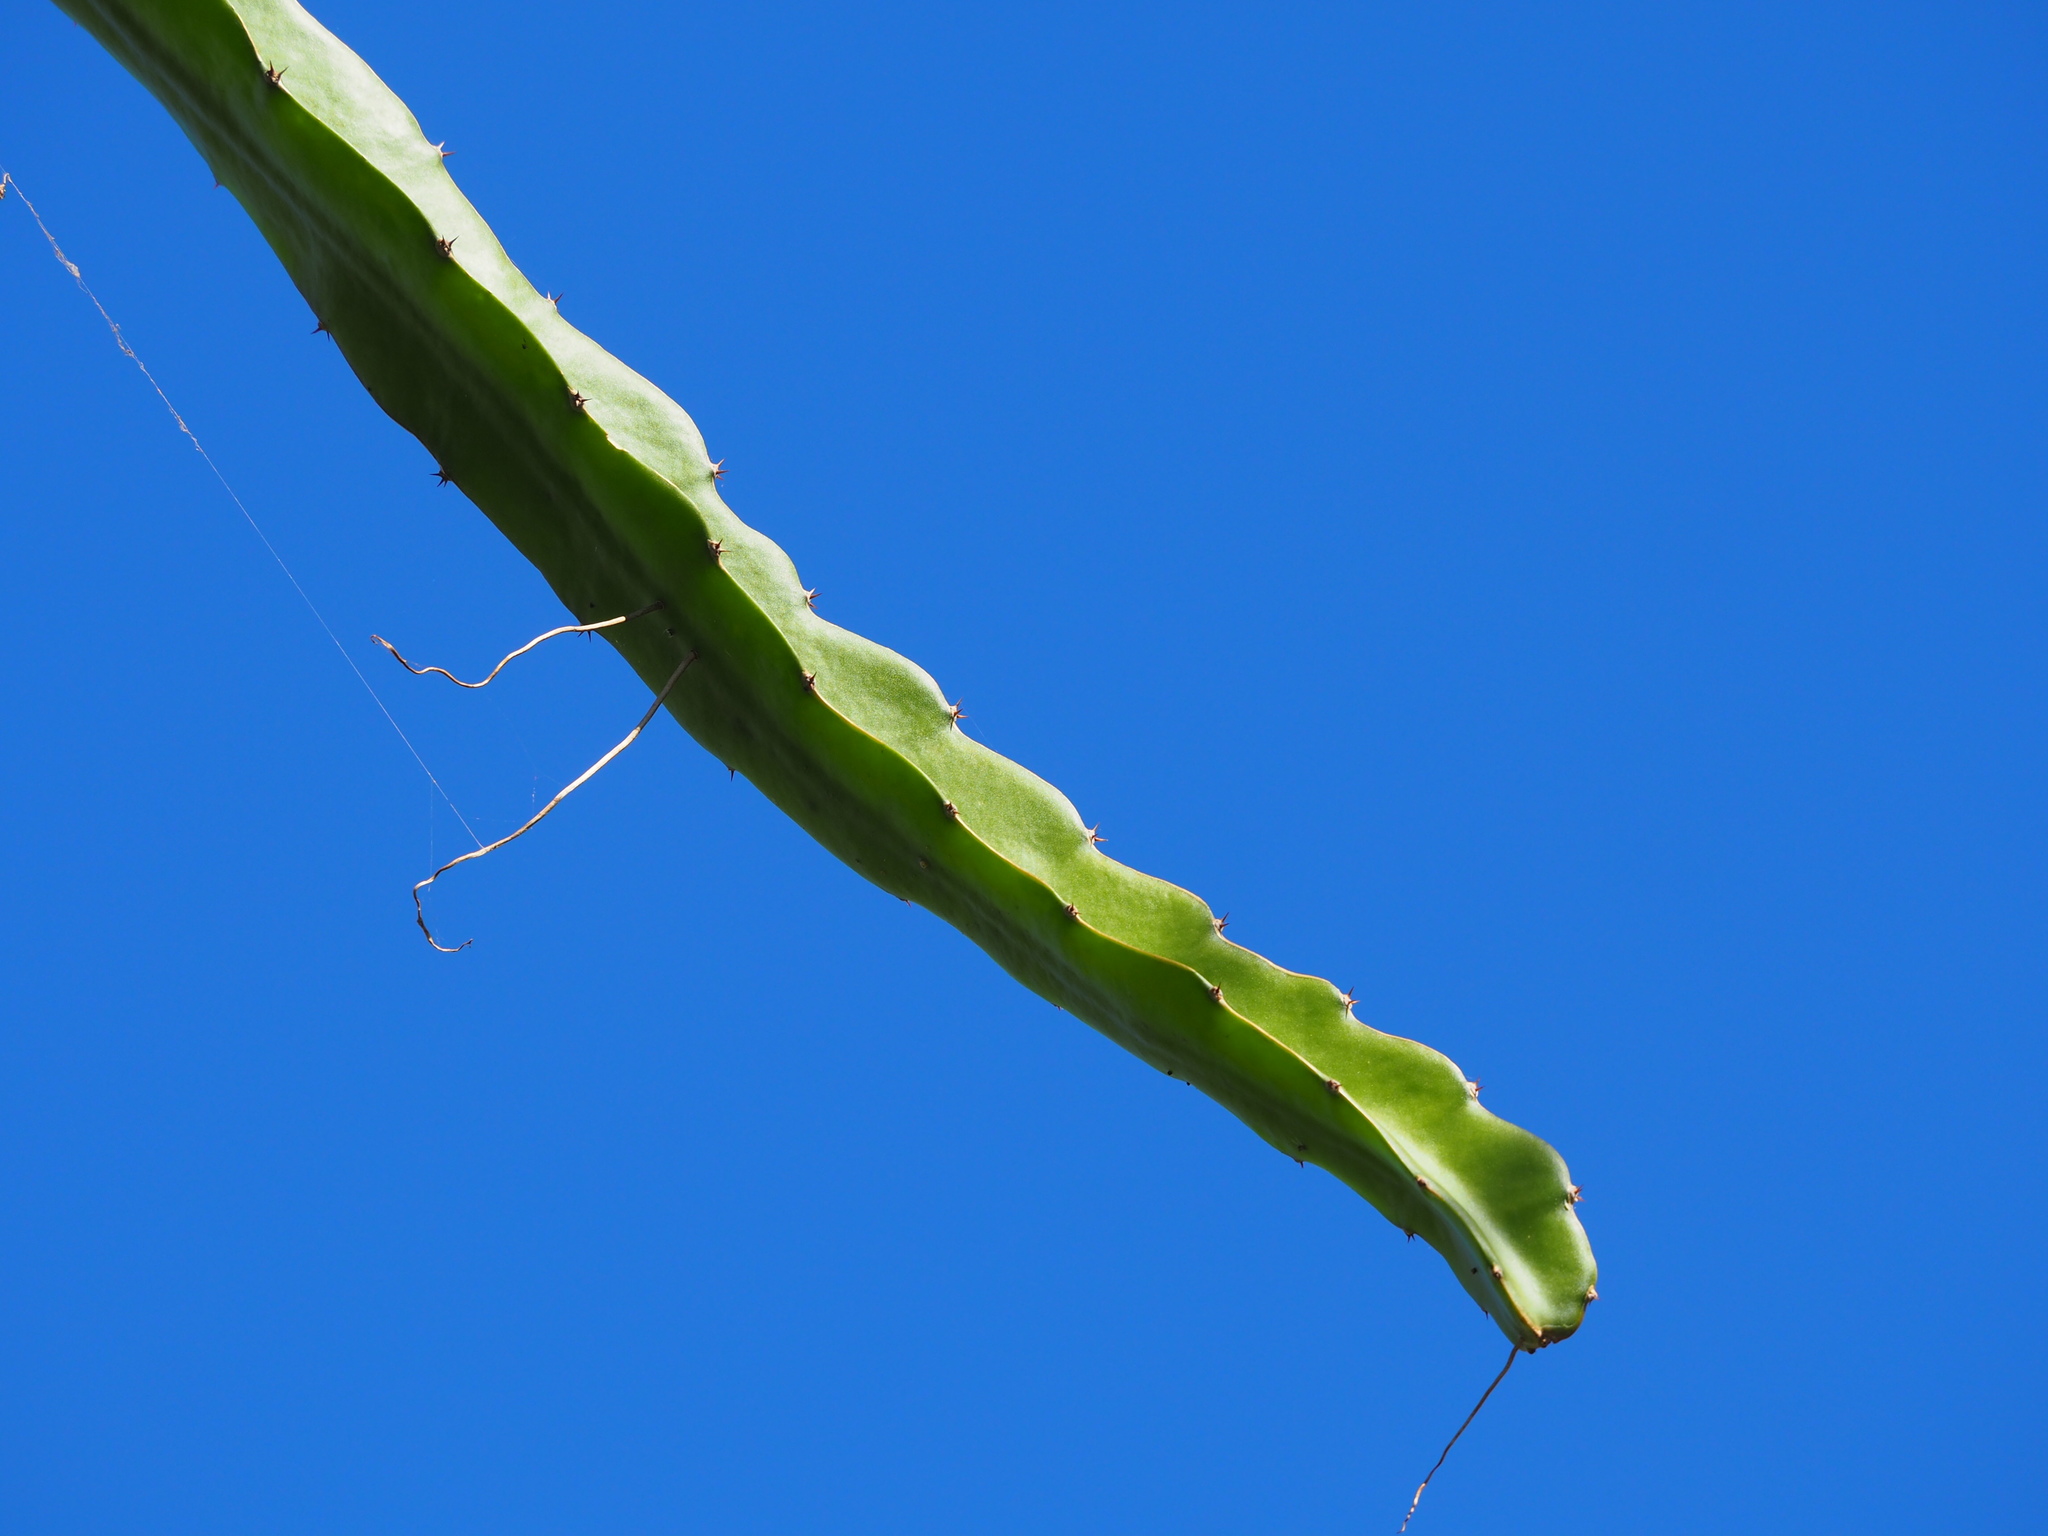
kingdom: Plantae
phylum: Tracheophyta
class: Magnoliopsida
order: Caryophyllales
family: Cactaceae
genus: Selenicereus
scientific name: Selenicereus undatus
